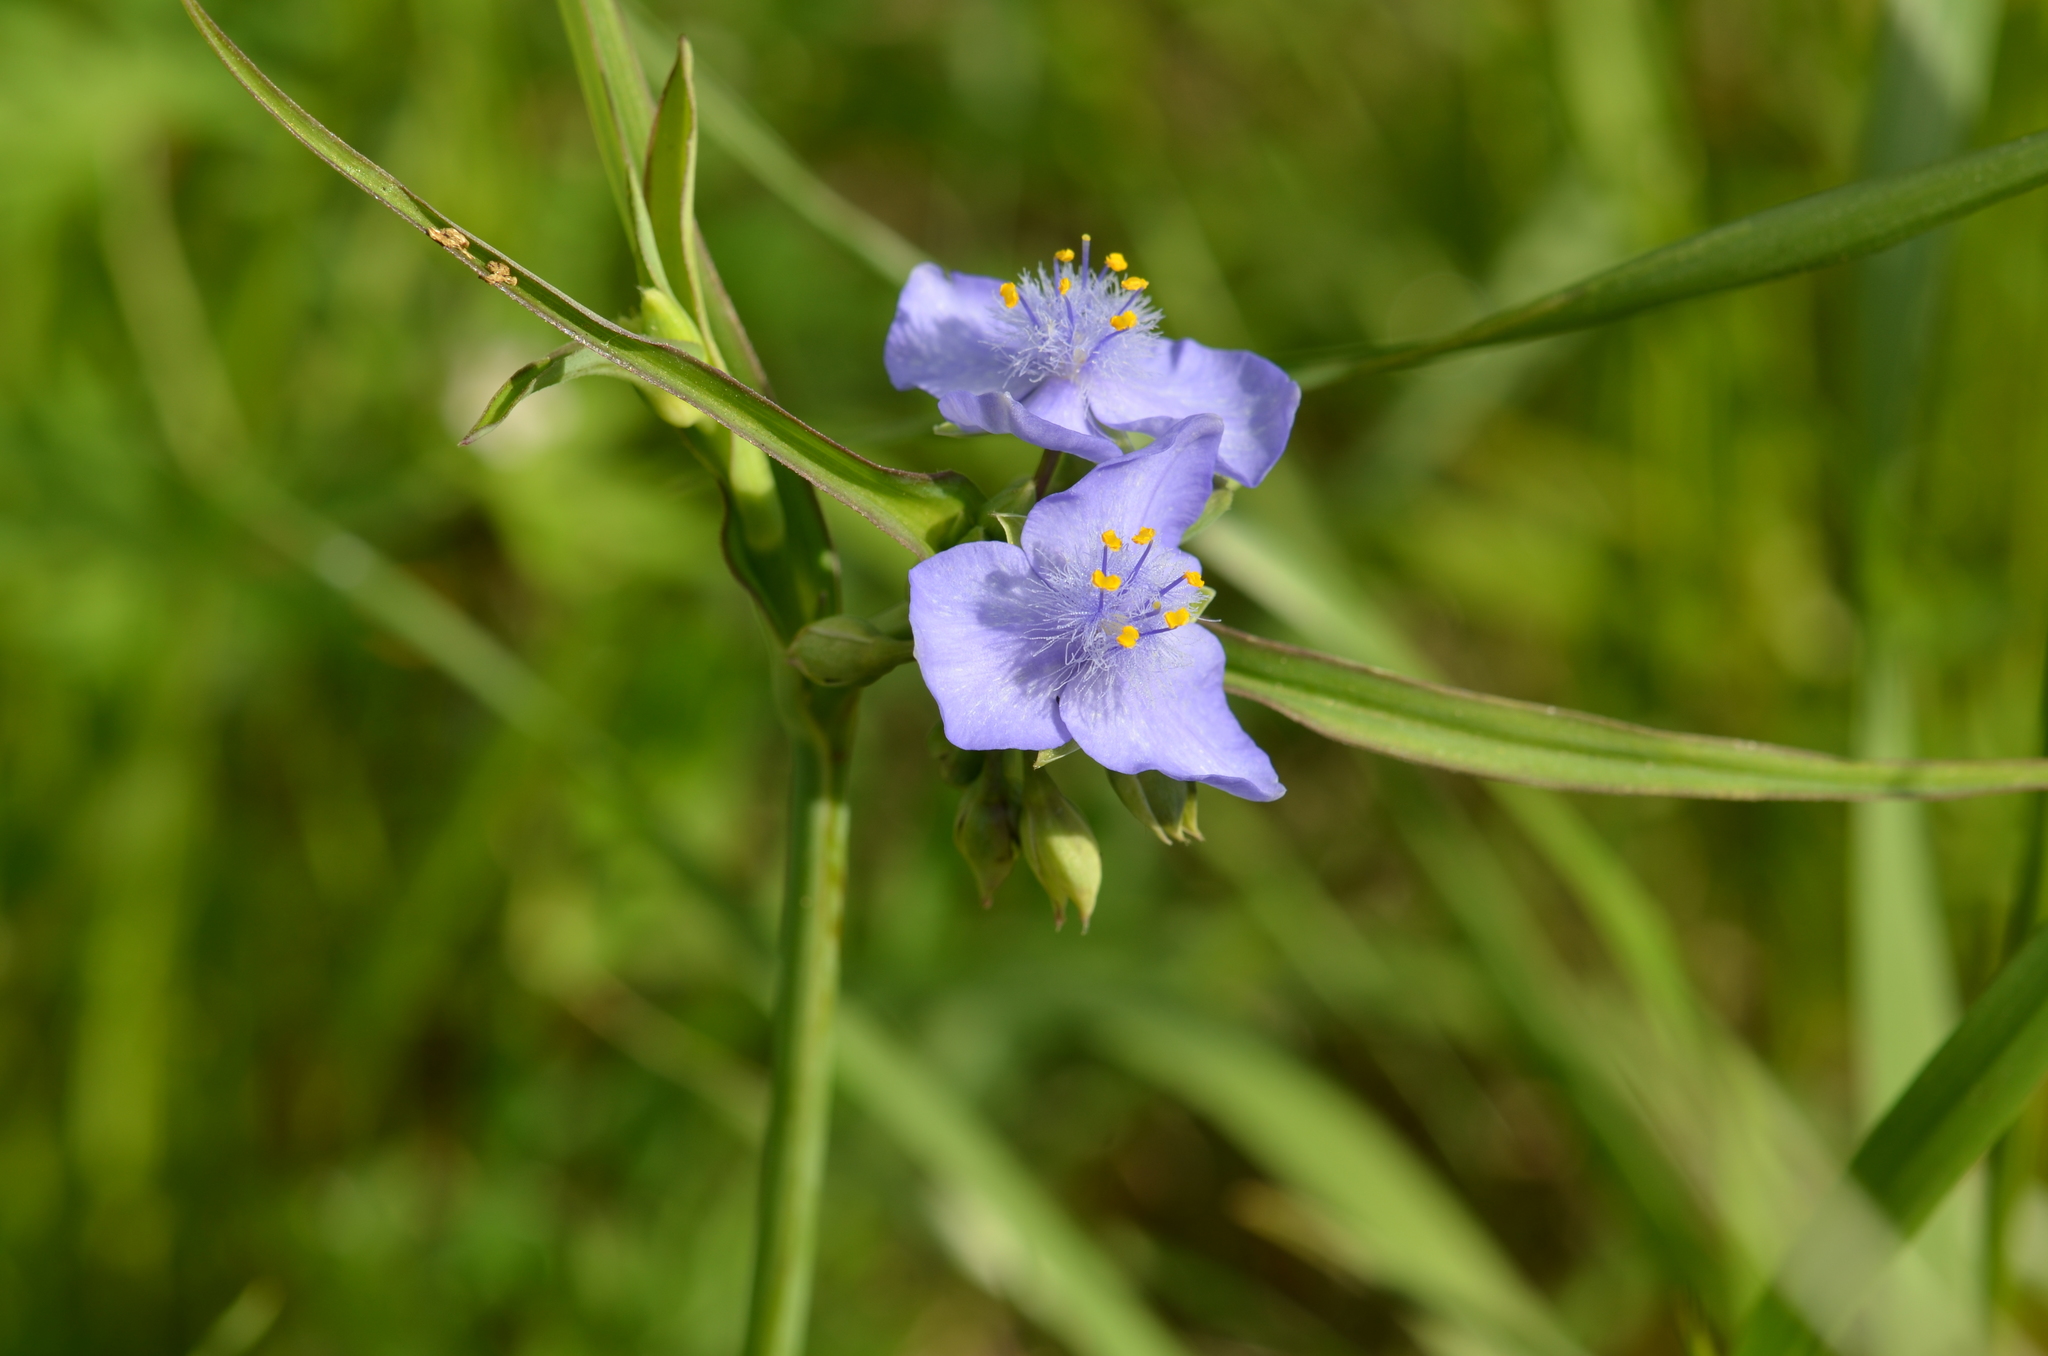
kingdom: Plantae
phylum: Tracheophyta
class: Liliopsida
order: Commelinales
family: Commelinaceae
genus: Tradescantia
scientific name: Tradescantia ohiensis
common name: Ohio spiderwort
